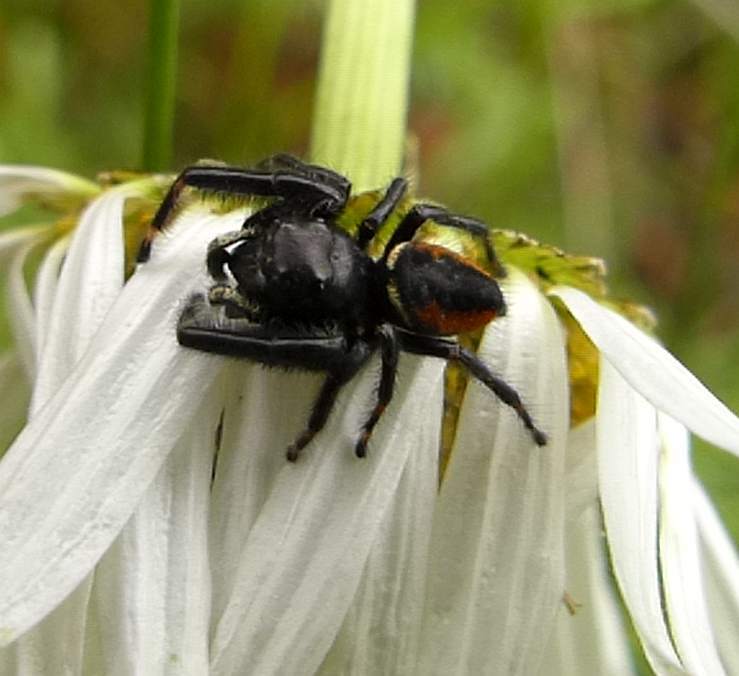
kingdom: Animalia
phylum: Arthropoda
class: Arachnida
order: Araneae
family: Salticidae
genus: Phidippus
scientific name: Phidippus clarus
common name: Brilliant jumping spider
